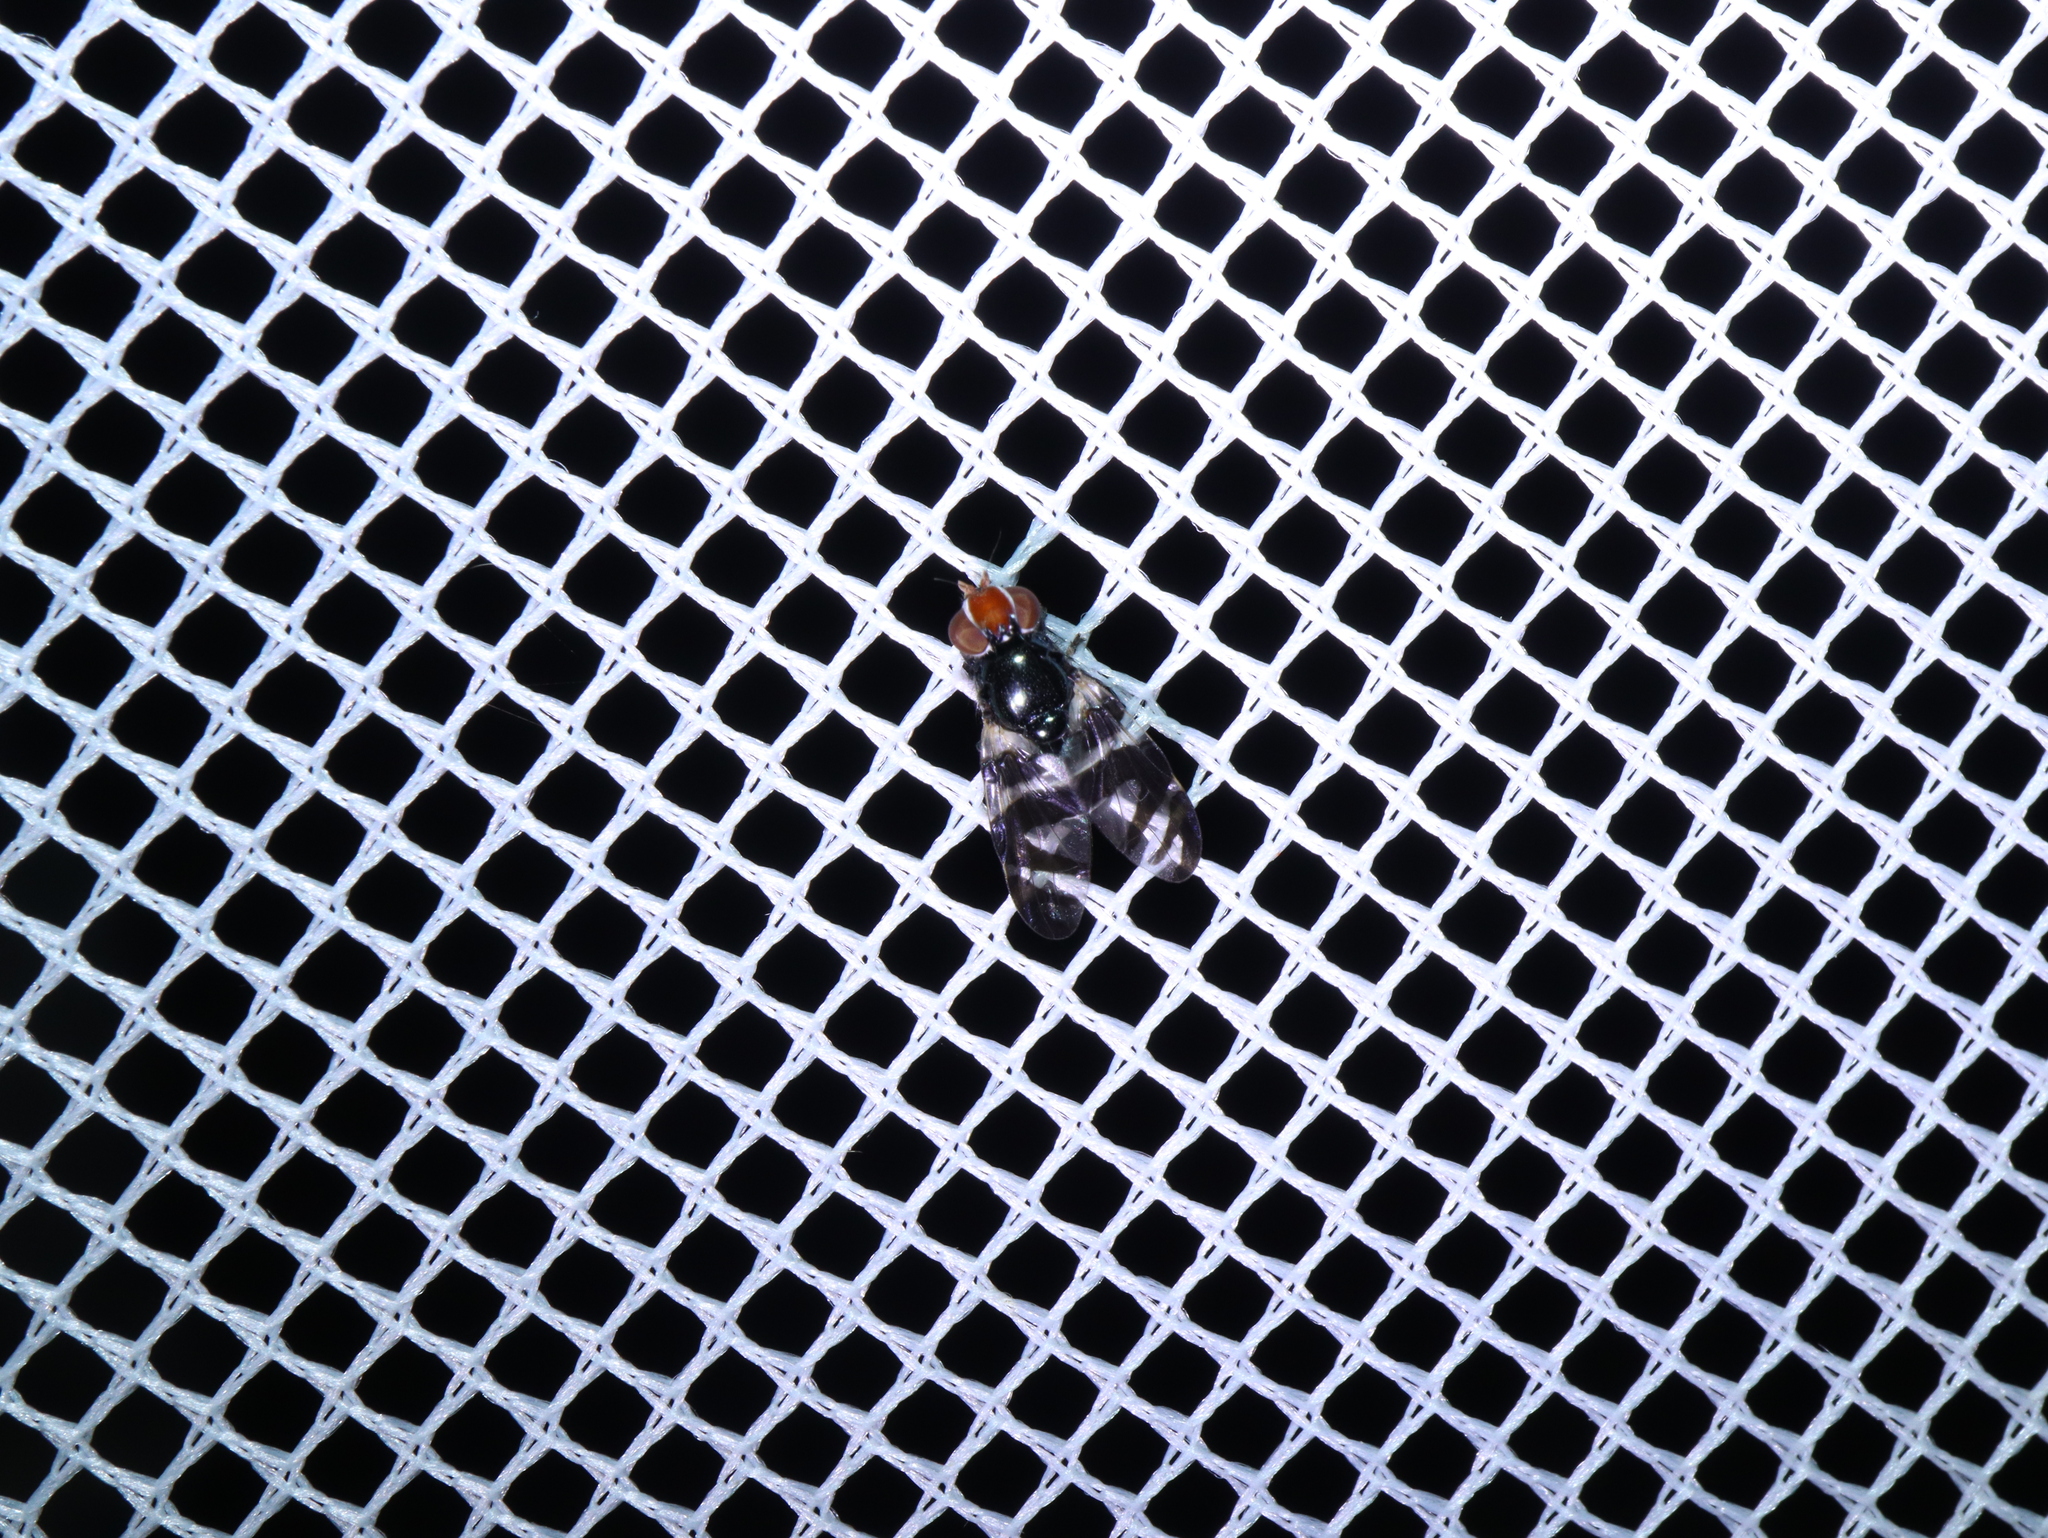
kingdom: Animalia
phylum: Arthropoda
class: Insecta
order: Diptera
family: Platystomatidae
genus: Lenophila
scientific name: Lenophila achilles
